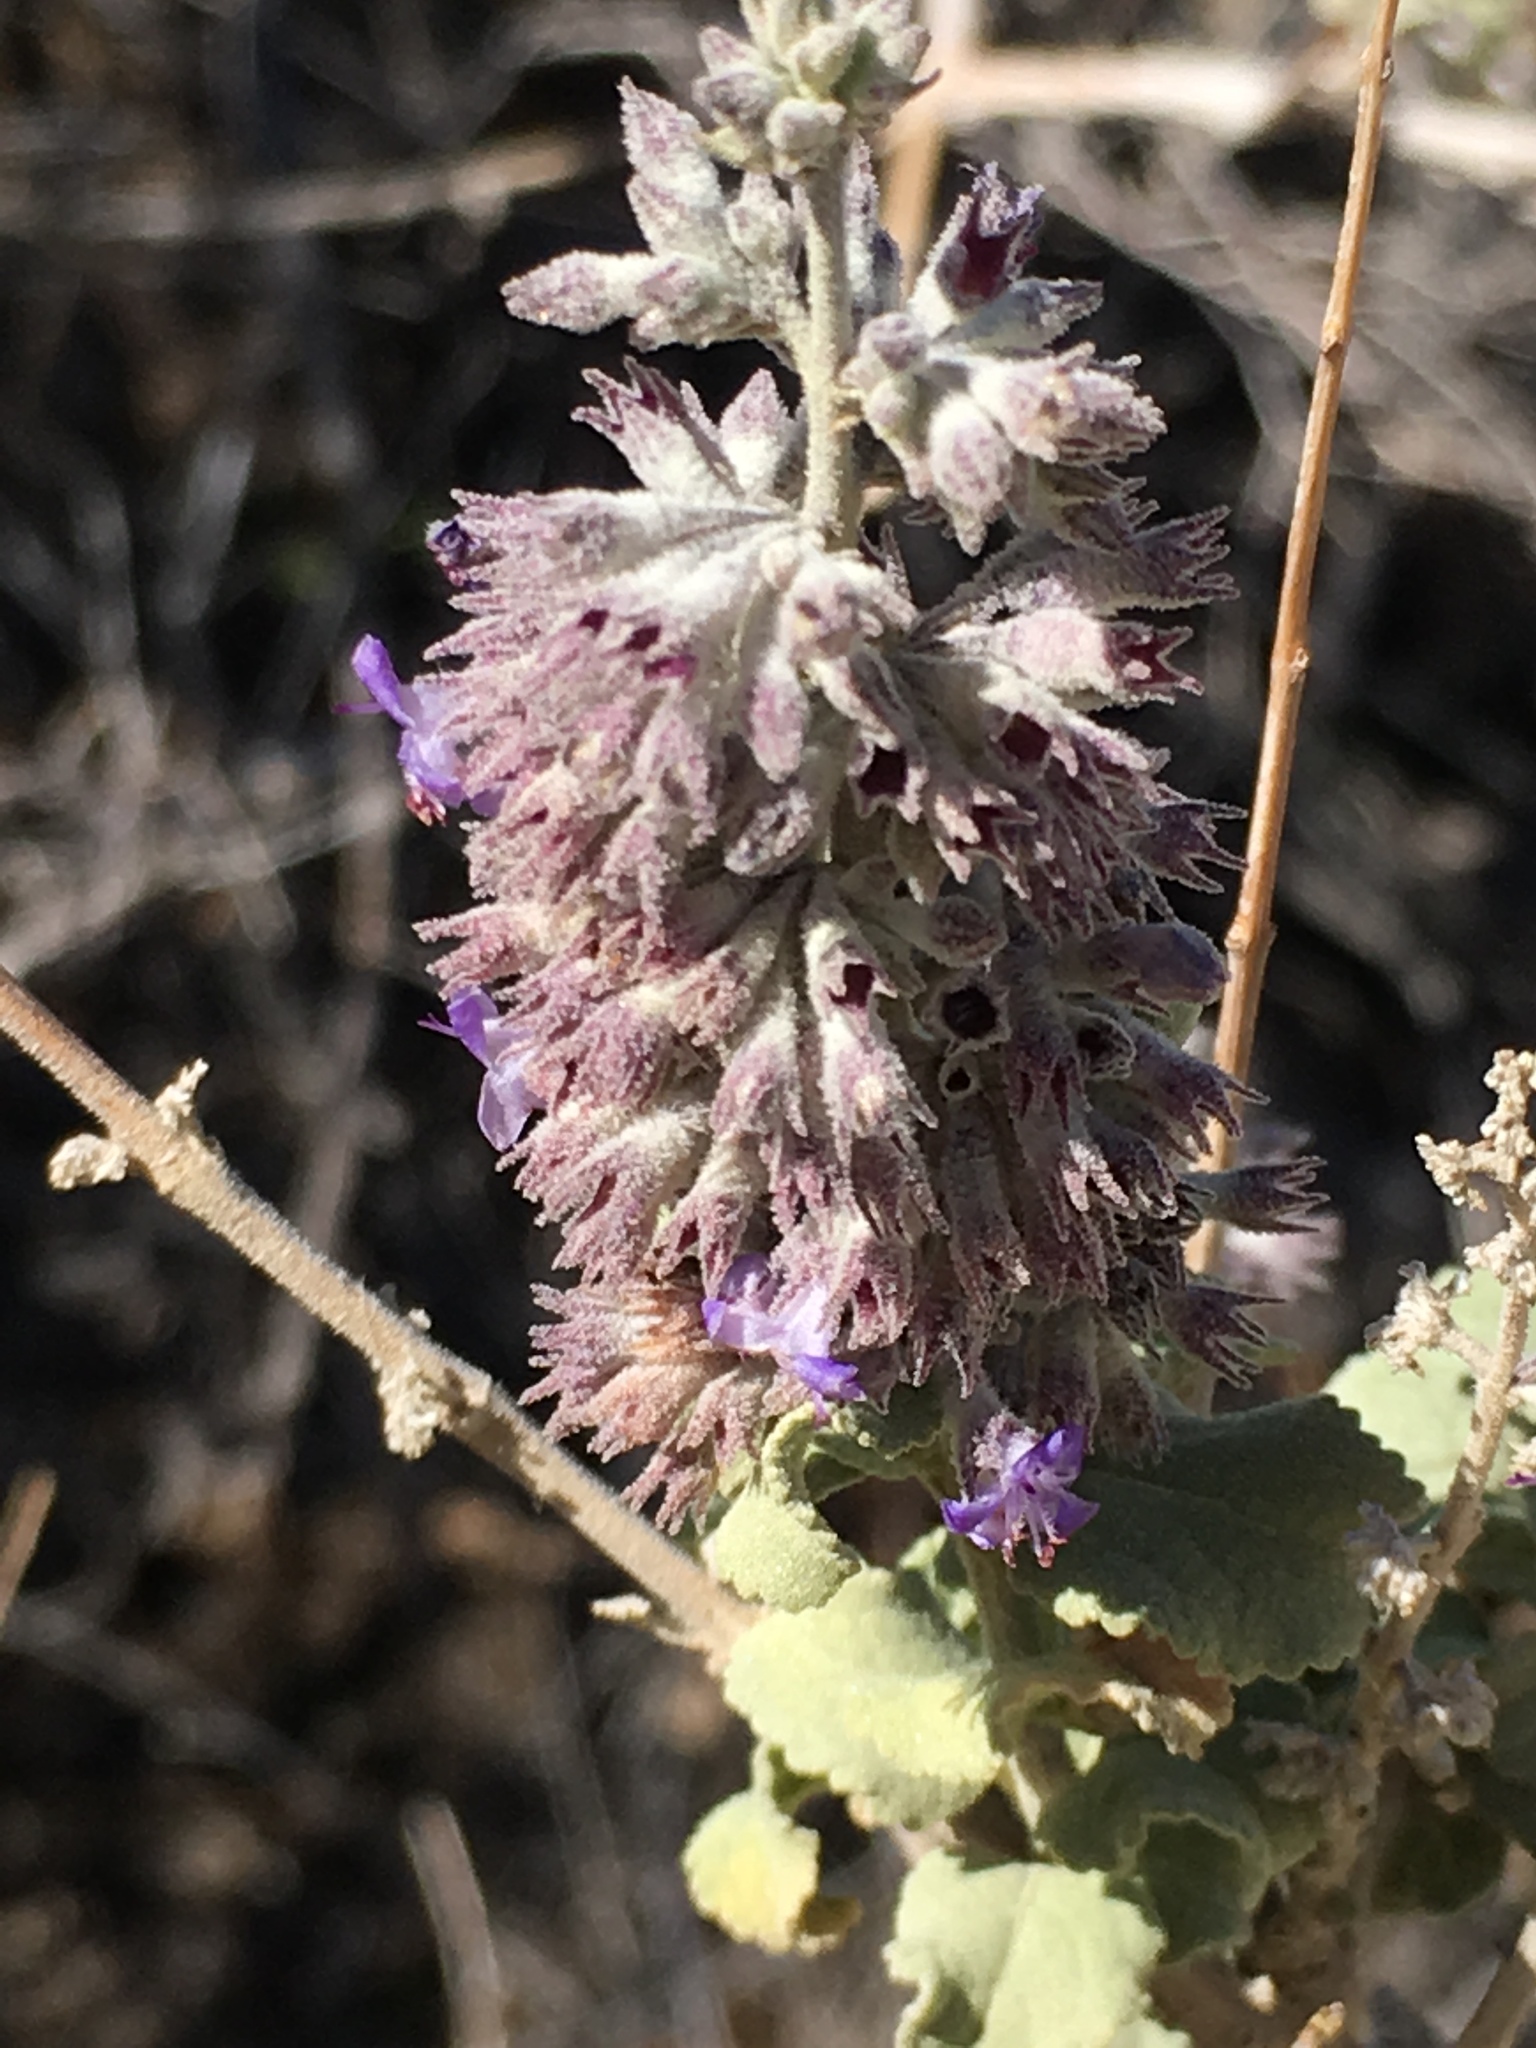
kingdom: Plantae
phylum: Tracheophyta
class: Magnoliopsida
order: Lamiales
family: Lamiaceae
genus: Condea
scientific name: Condea emoryi
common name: Chia
